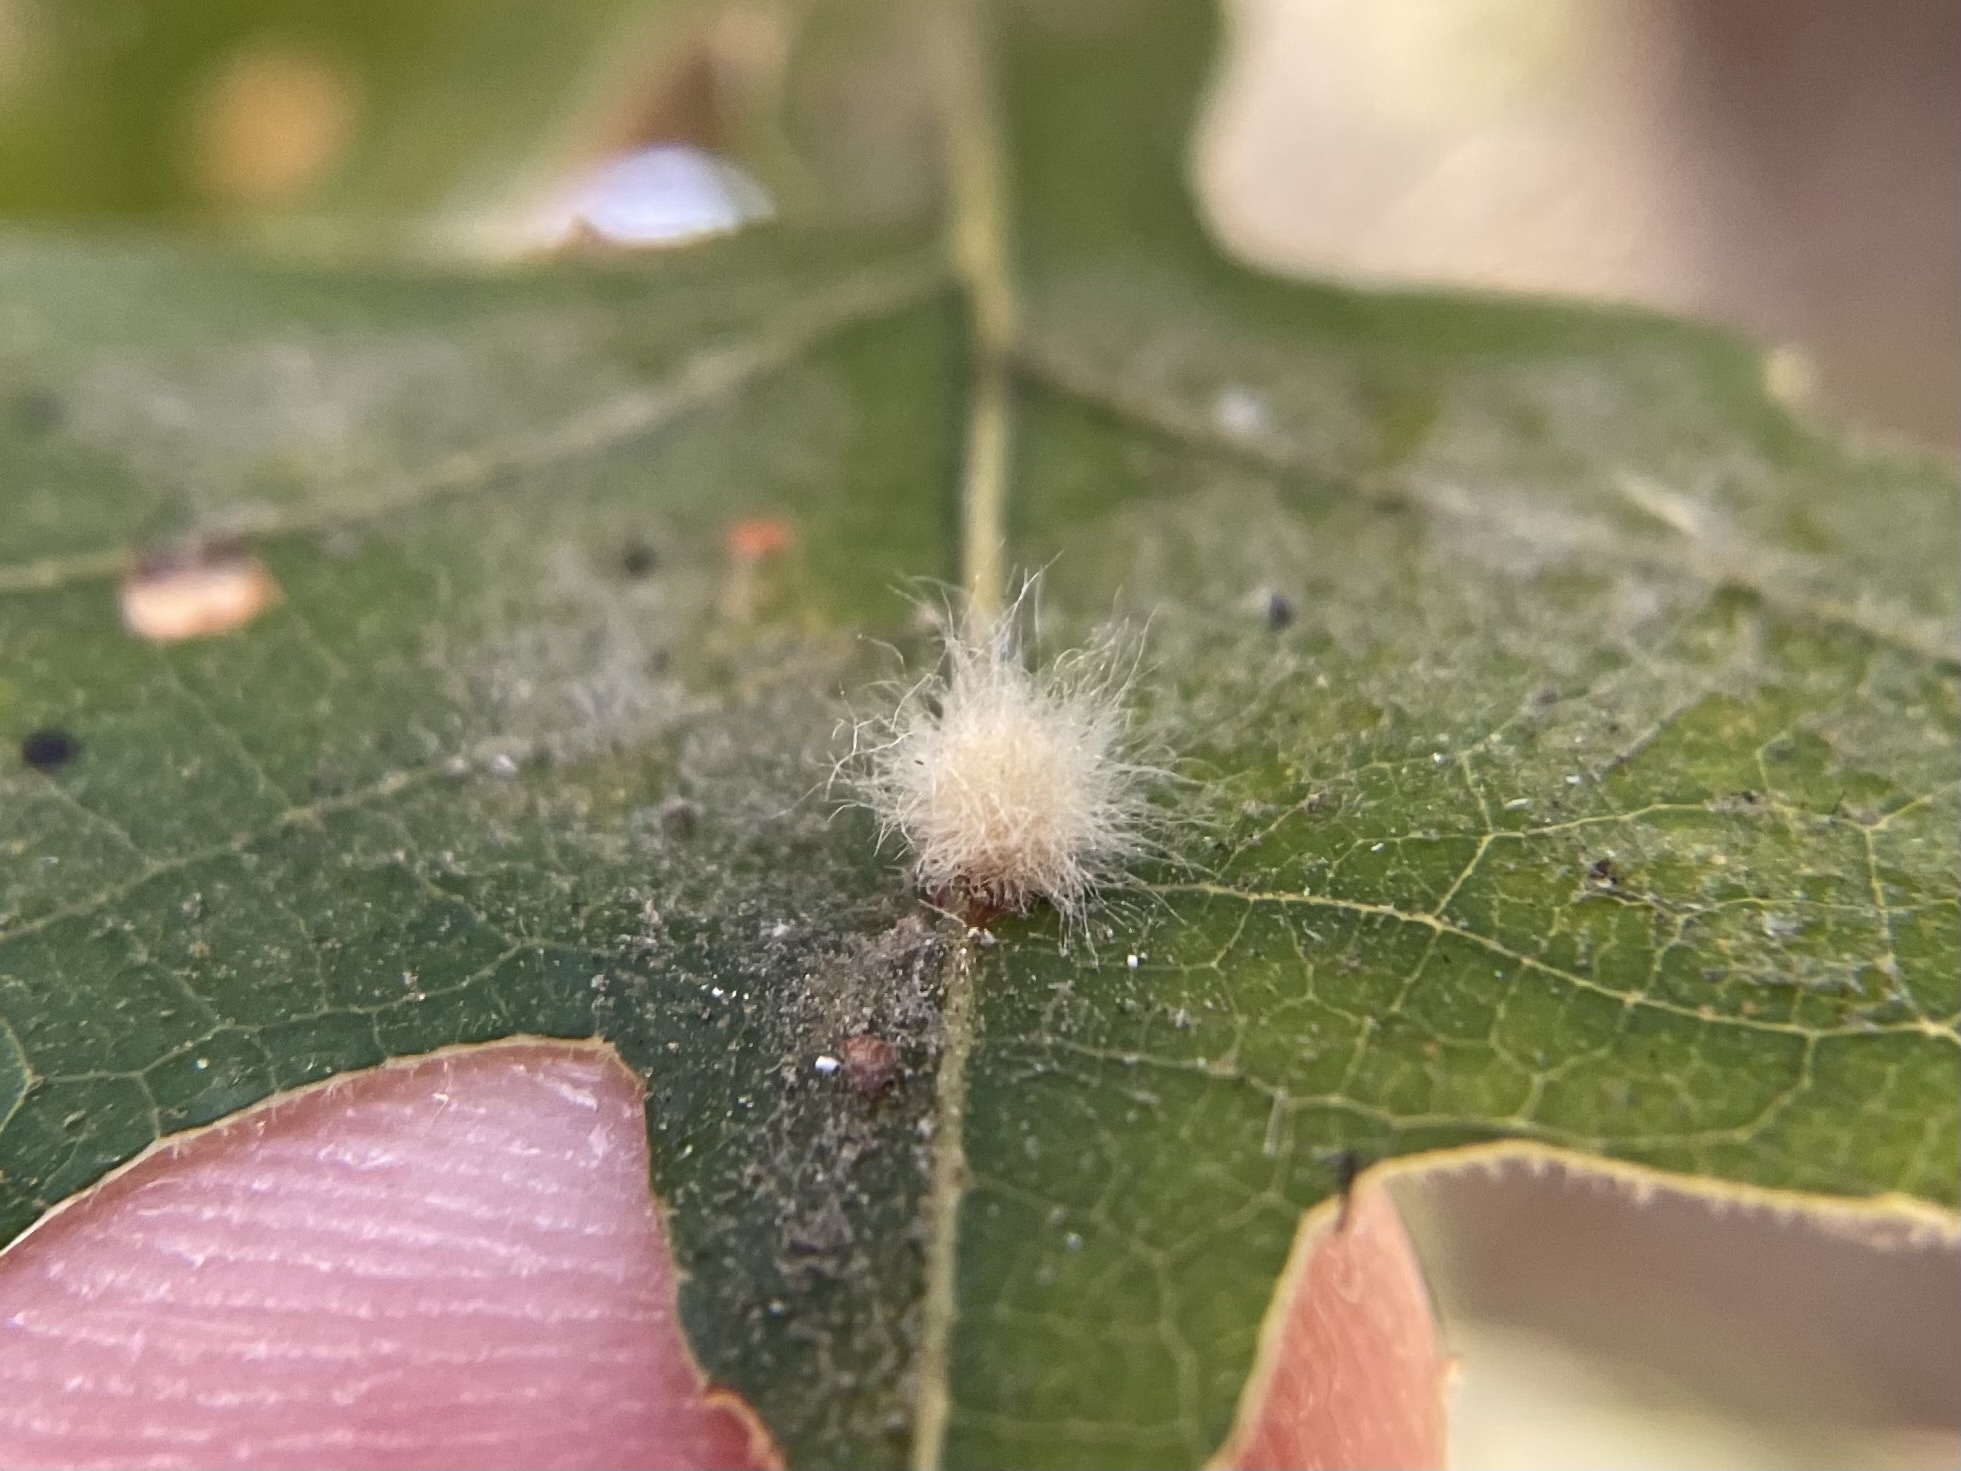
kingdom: Animalia
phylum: Arthropoda
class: Insecta
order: Hymenoptera
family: Cynipidae
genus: Andricus
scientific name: Andricus Druon fullawayi
